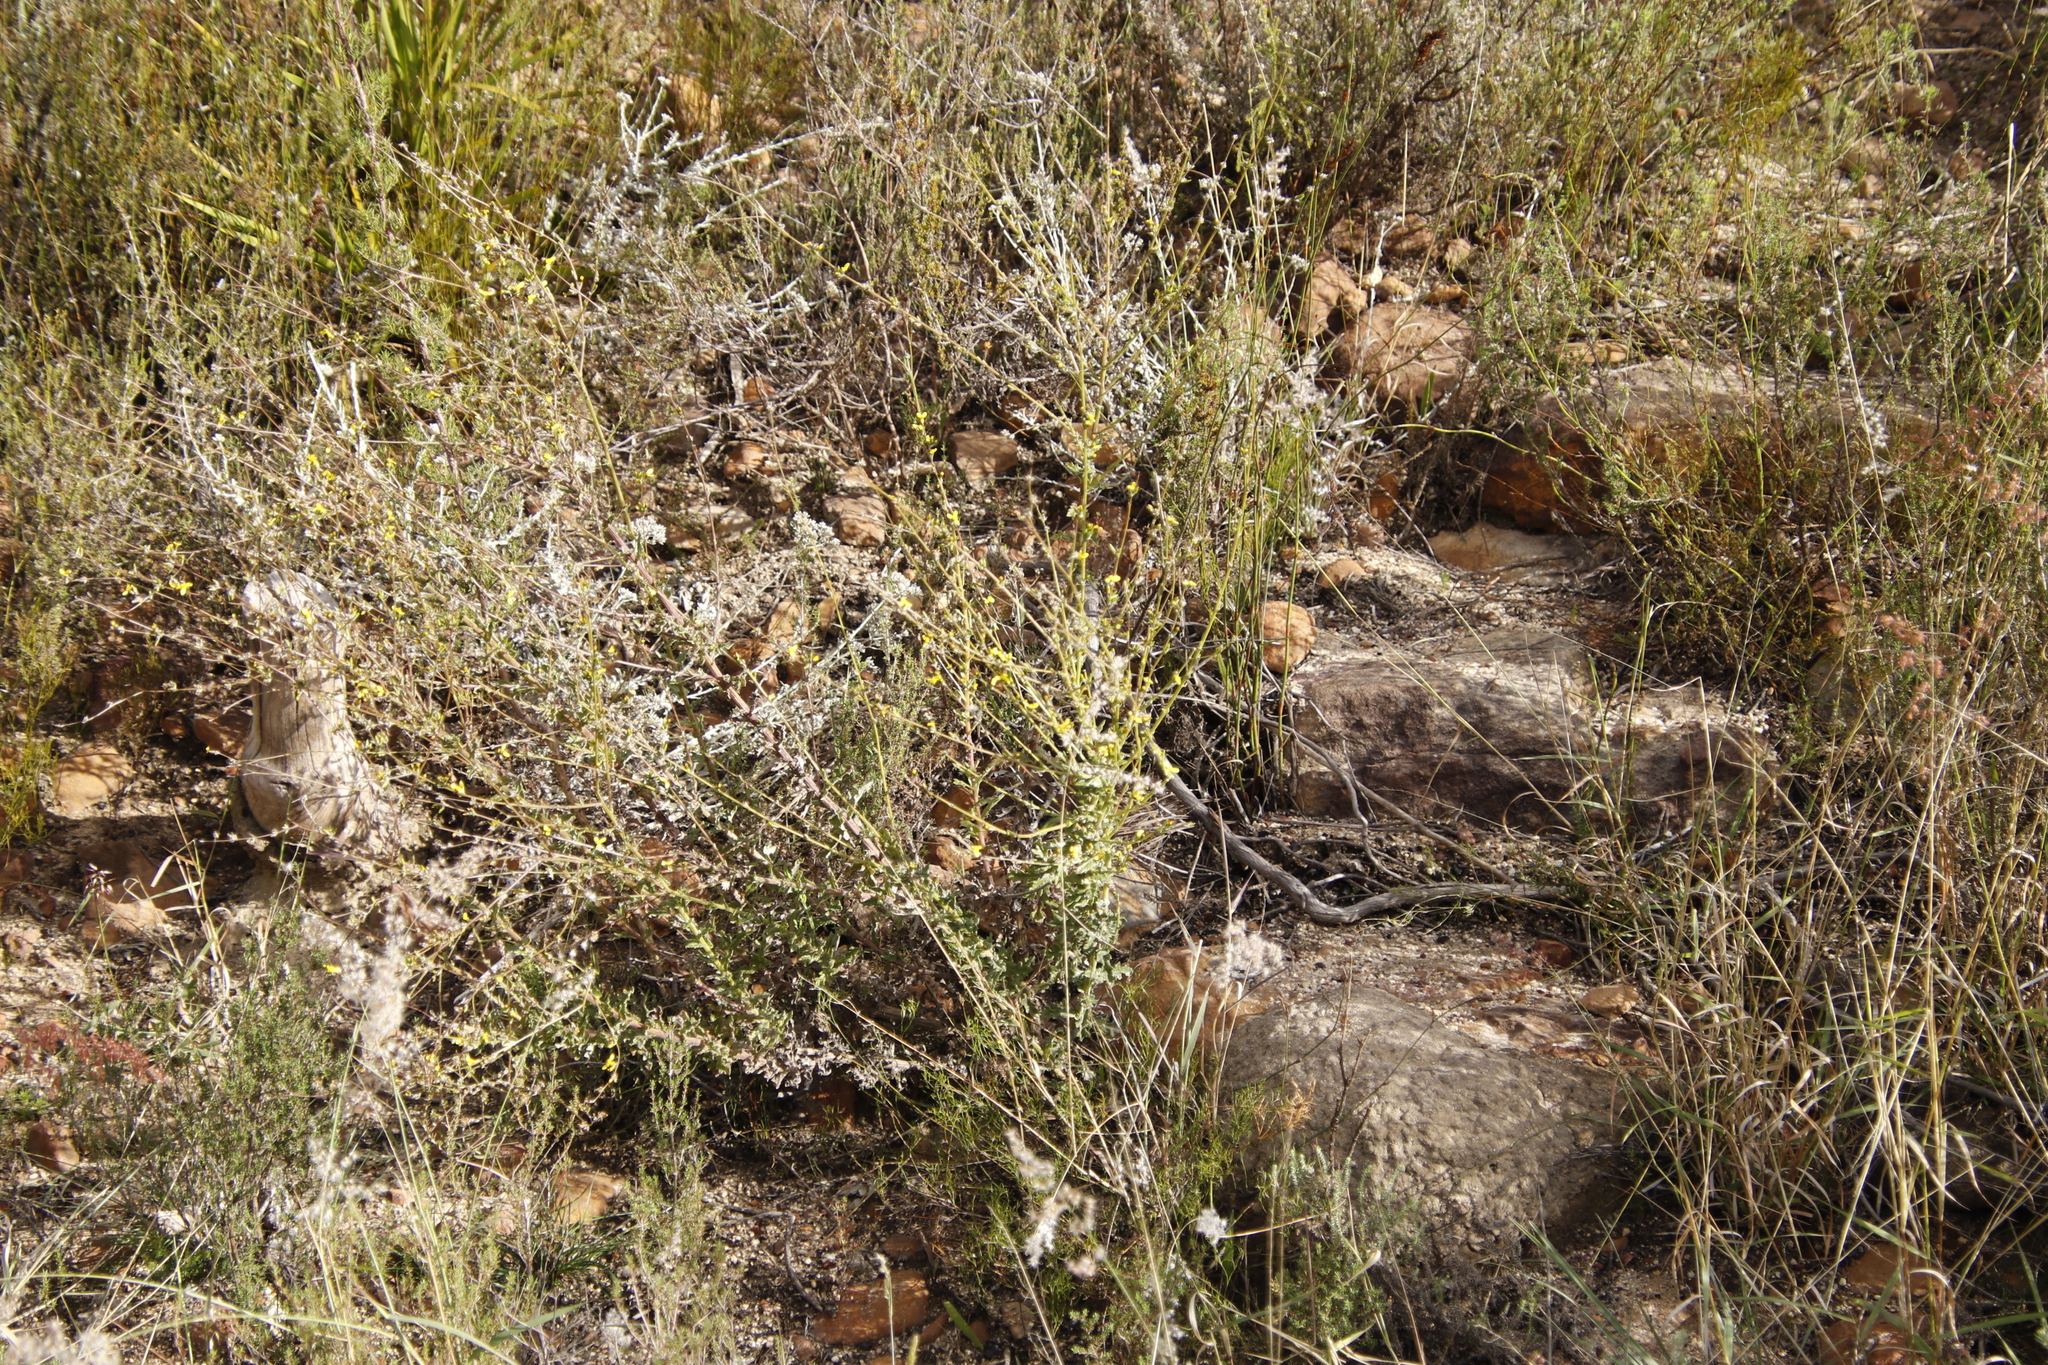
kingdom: Plantae
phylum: Tracheophyta
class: Magnoliopsida
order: Asterales
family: Asteraceae
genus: Senecio
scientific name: Senecio pubigerus
